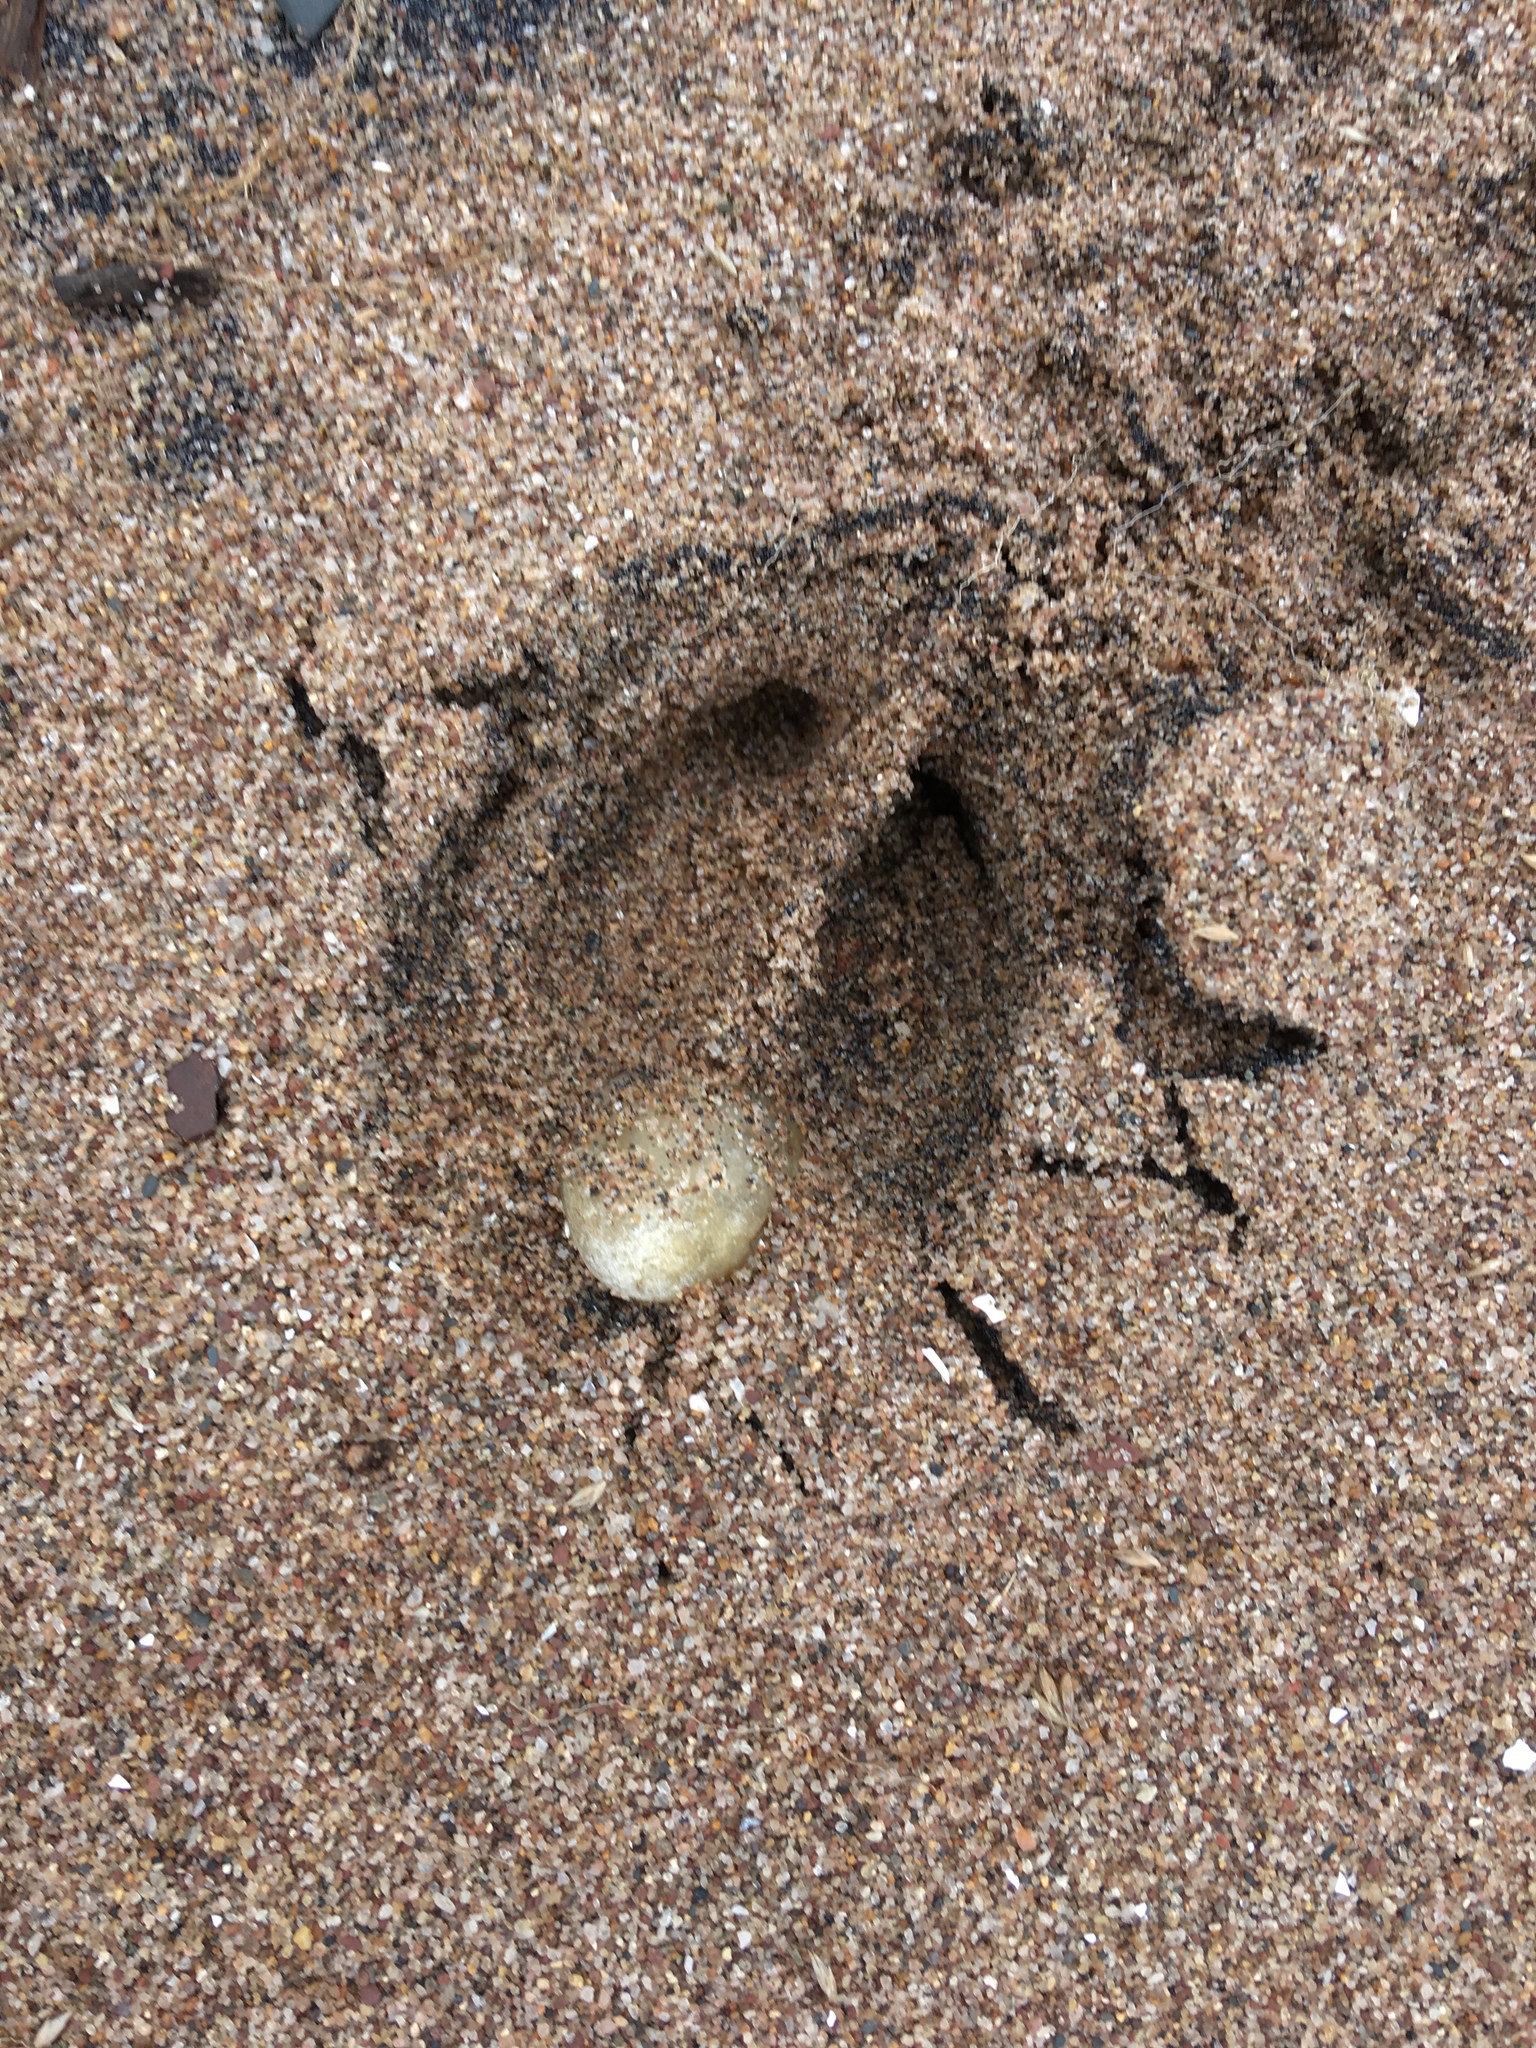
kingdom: Animalia
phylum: Chordata
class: Mammalia
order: Artiodactyla
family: Cervidae
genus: Odocoileus
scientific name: Odocoileus virginianus
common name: White-tailed deer
